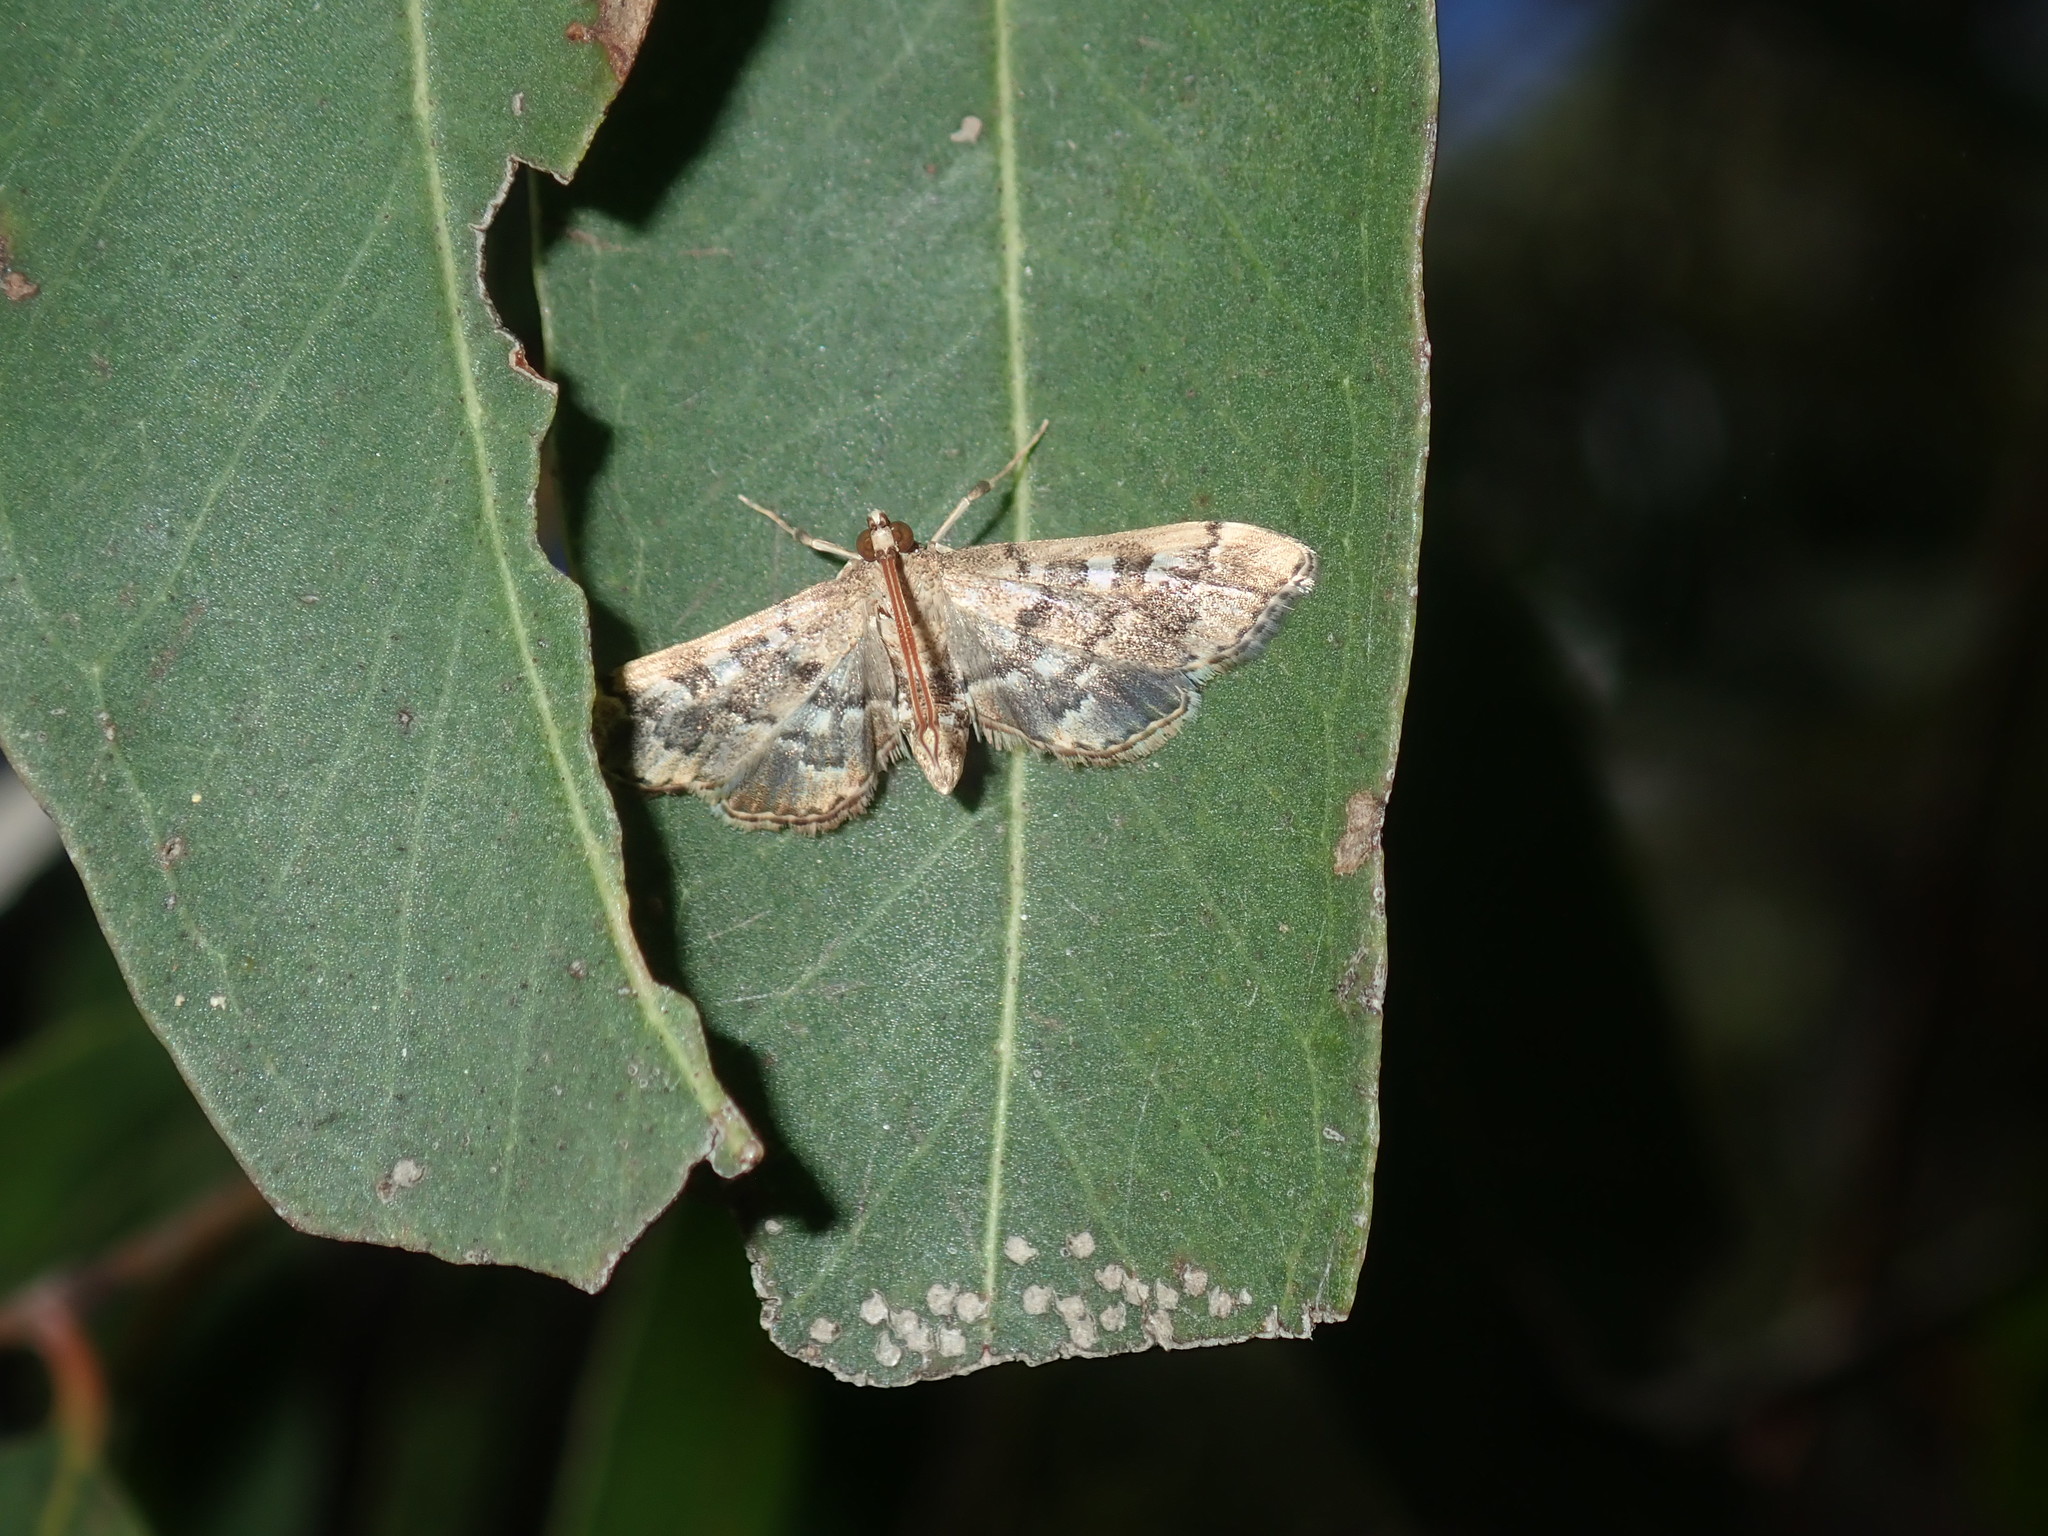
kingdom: Animalia
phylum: Arthropoda
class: Insecta
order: Lepidoptera
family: Crambidae
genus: Nacoleia
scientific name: Nacoleia rhoeoalis
